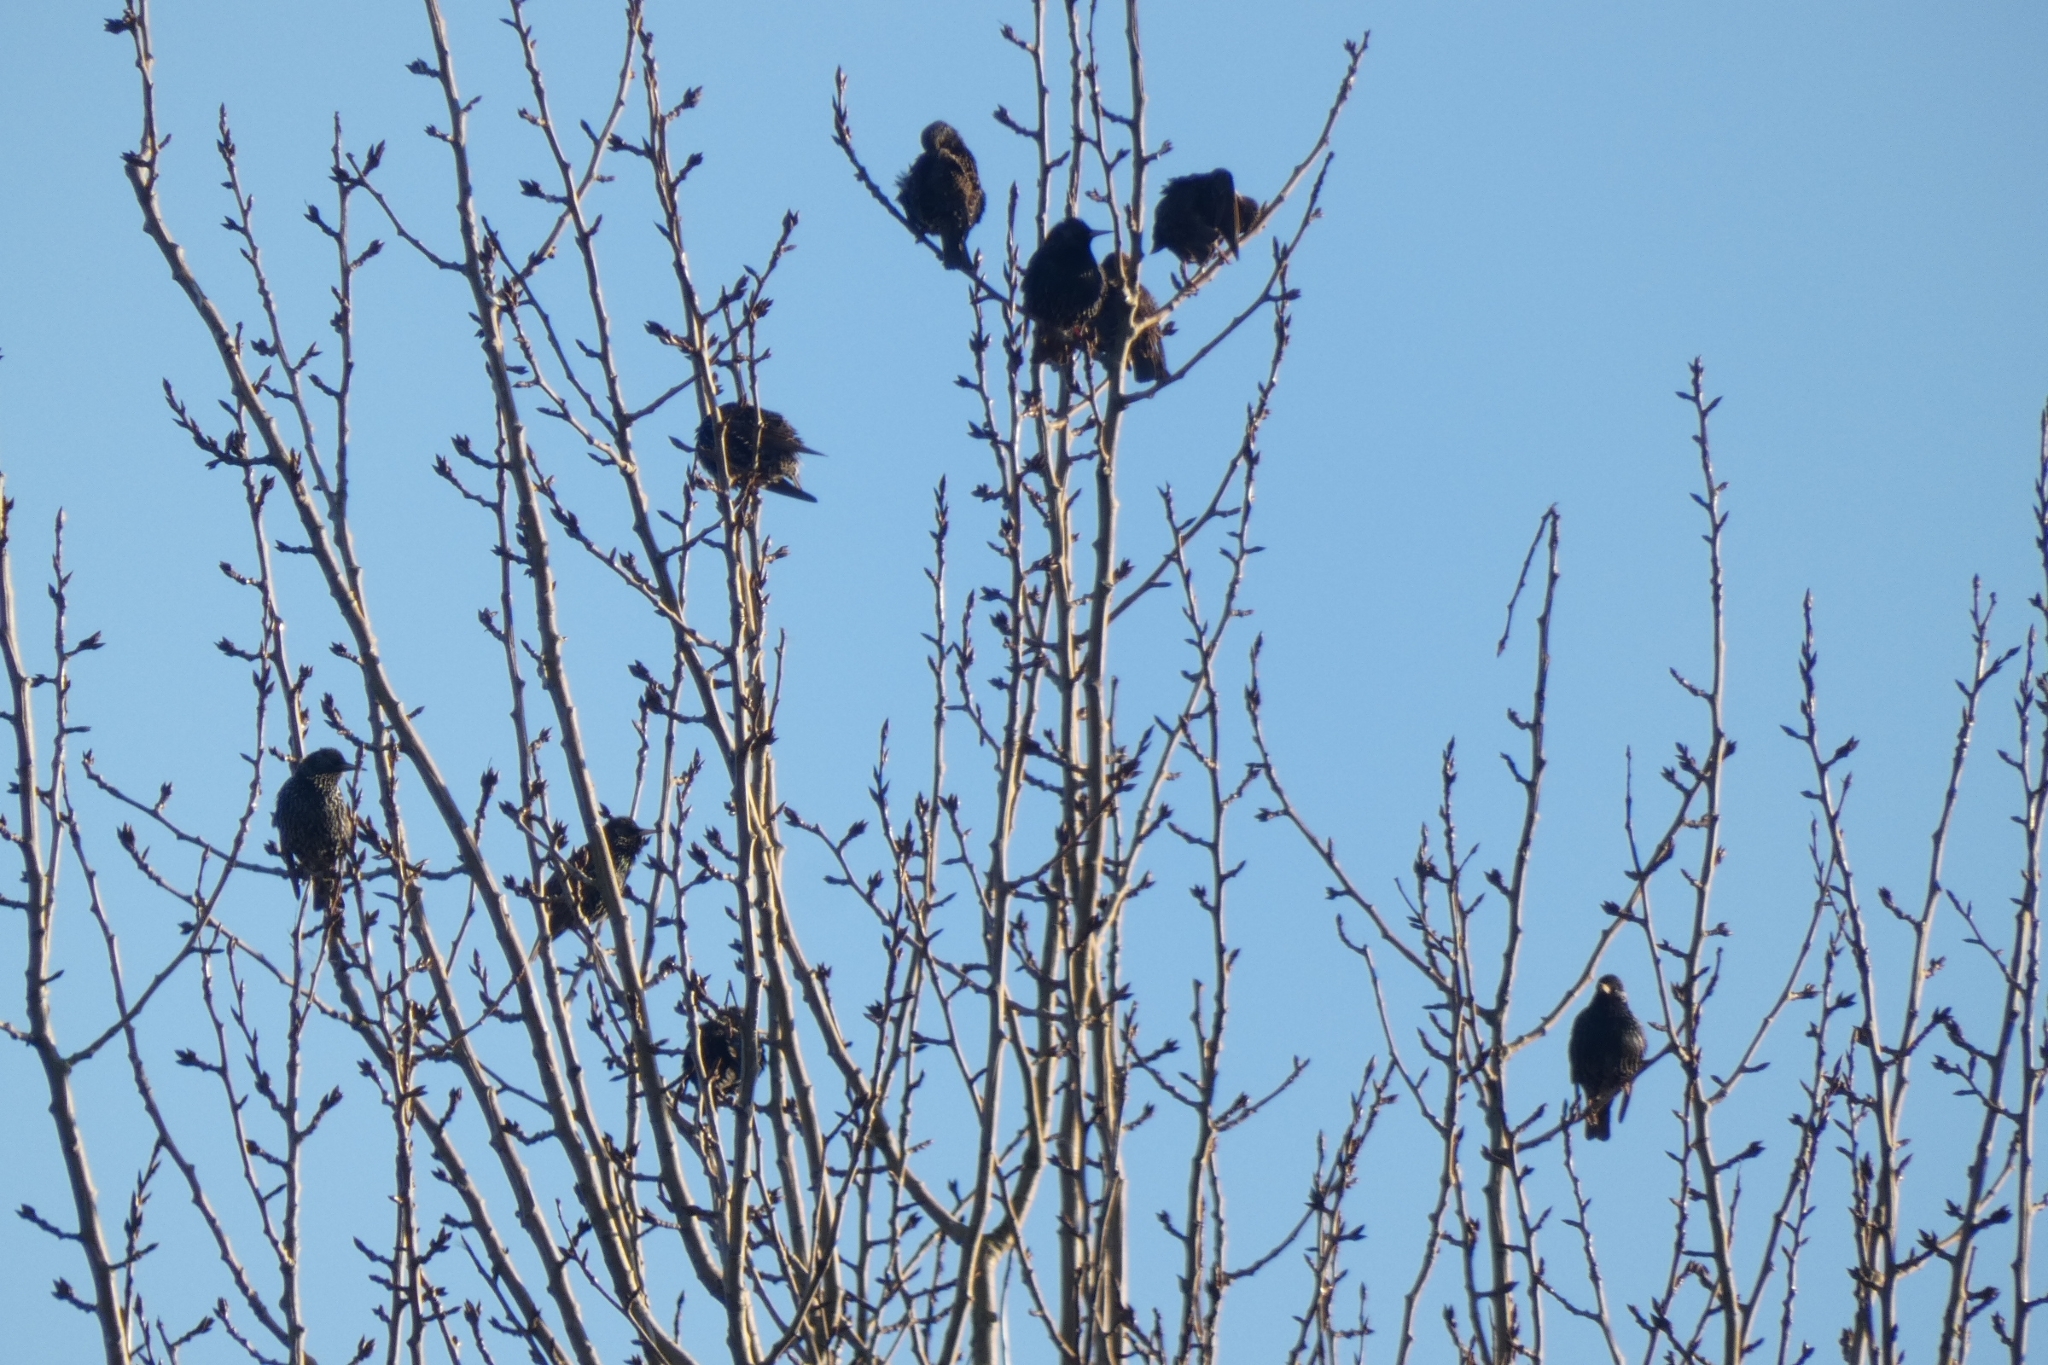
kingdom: Animalia
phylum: Chordata
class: Aves
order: Passeriformes
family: Sturnidae
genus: Sturnus
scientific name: Sturnus vulgaris
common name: Common starling
